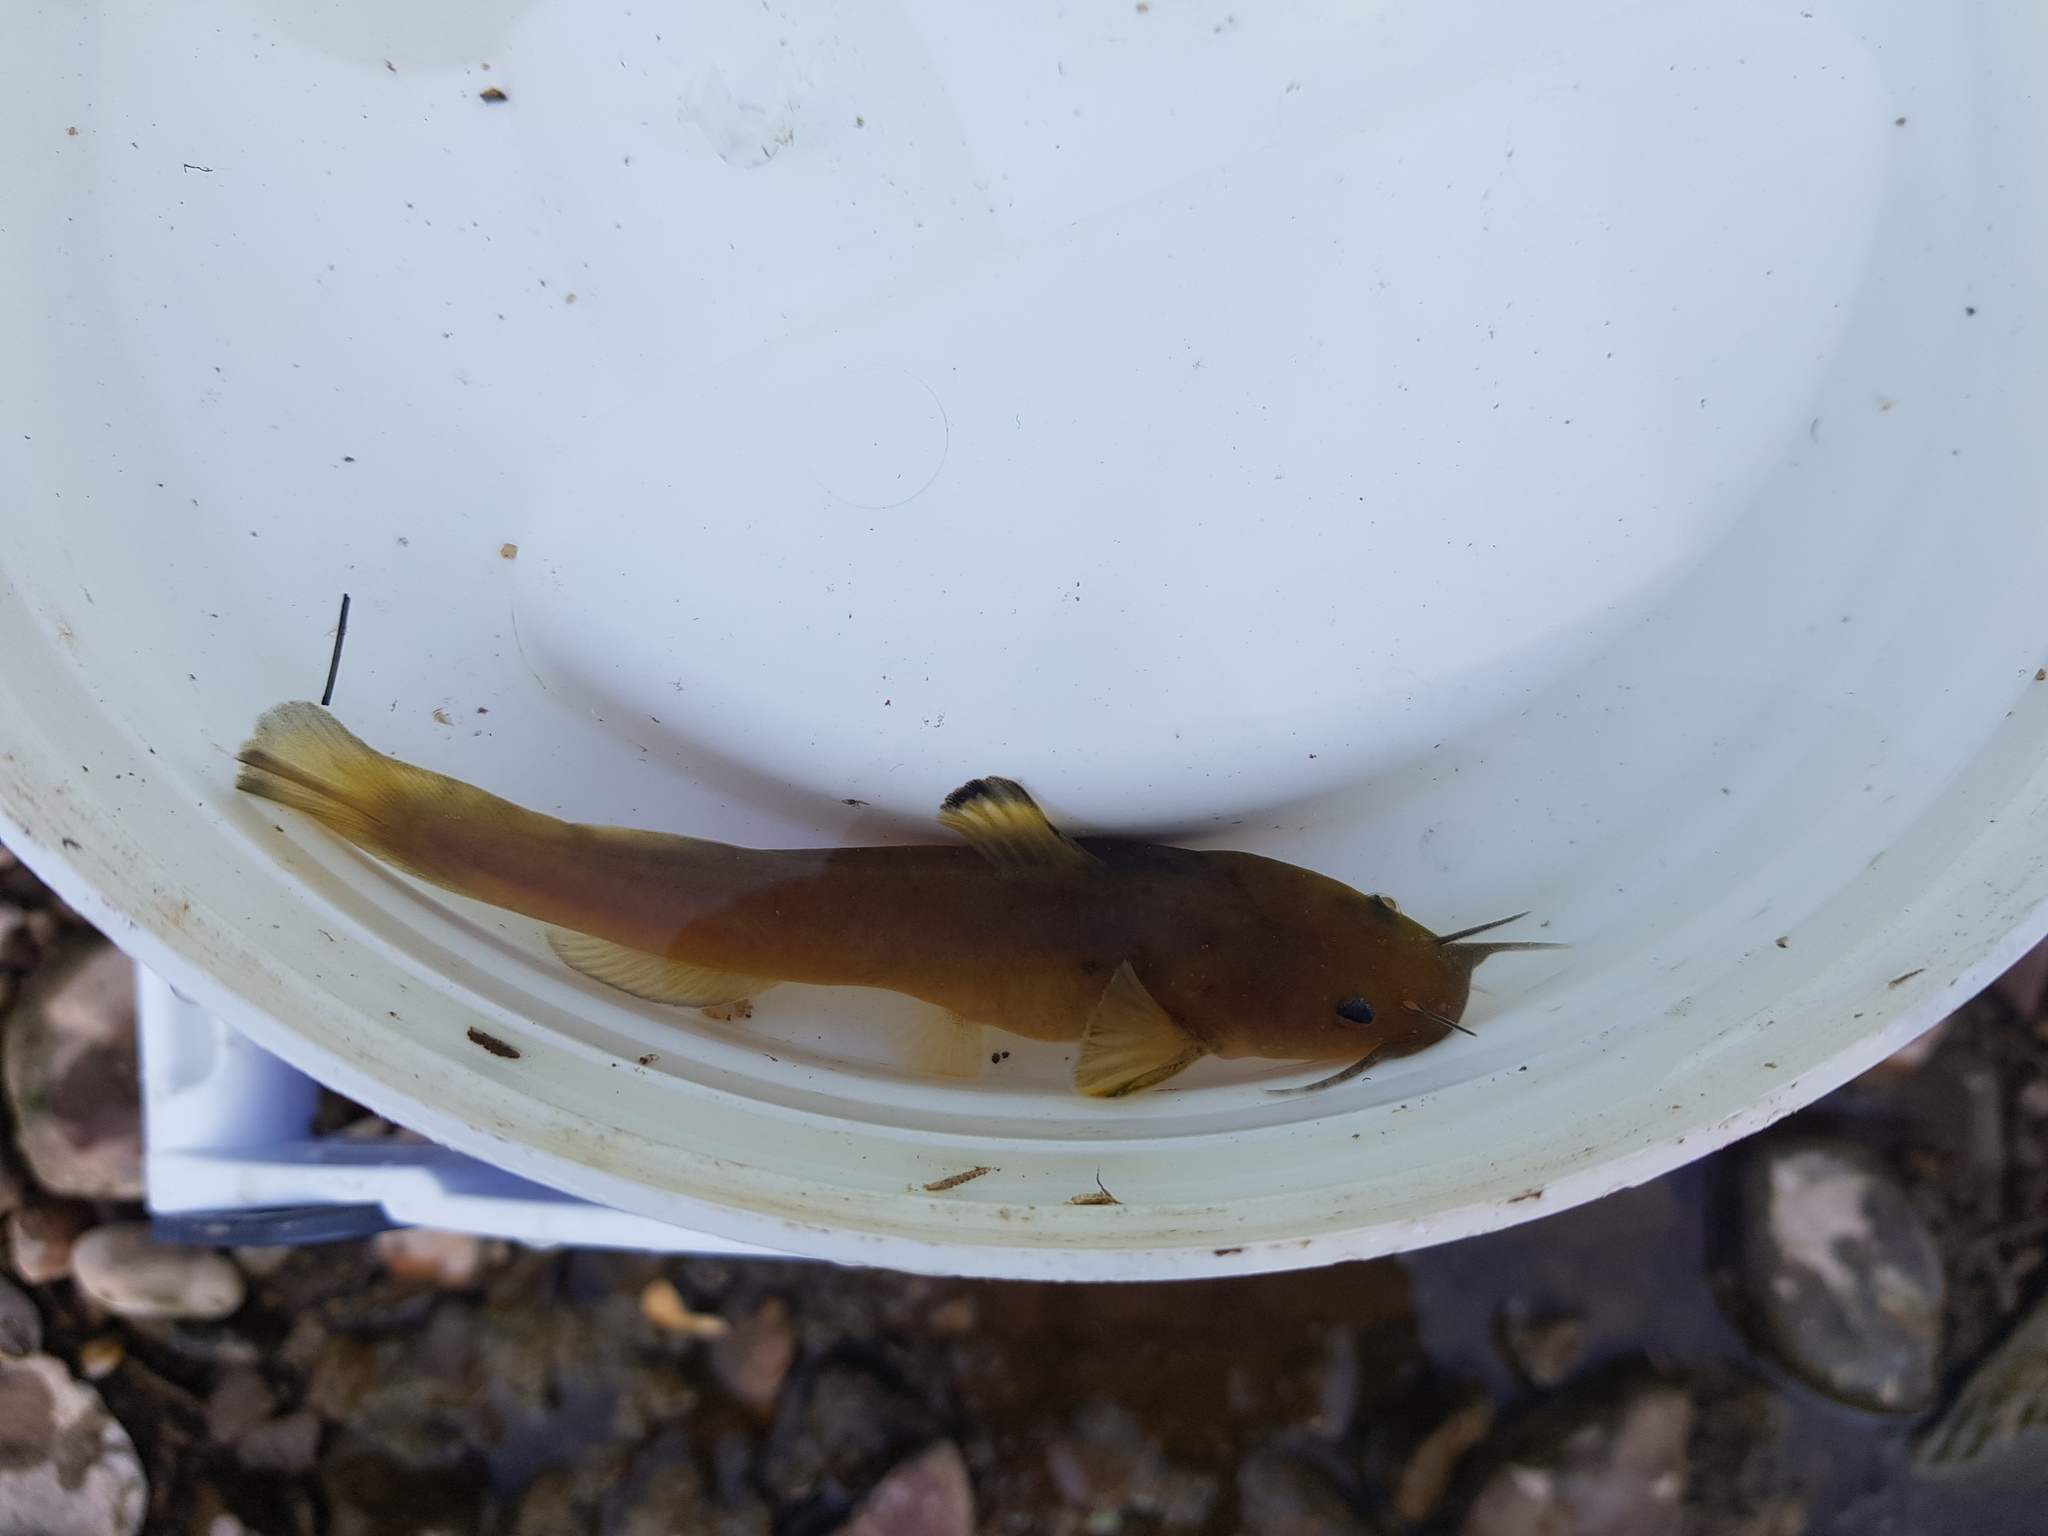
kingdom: Animalia
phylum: Chordata
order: Siluriformes
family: Ictaluridae
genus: Noturus
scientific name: Noturus insignis
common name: Margined madtom
